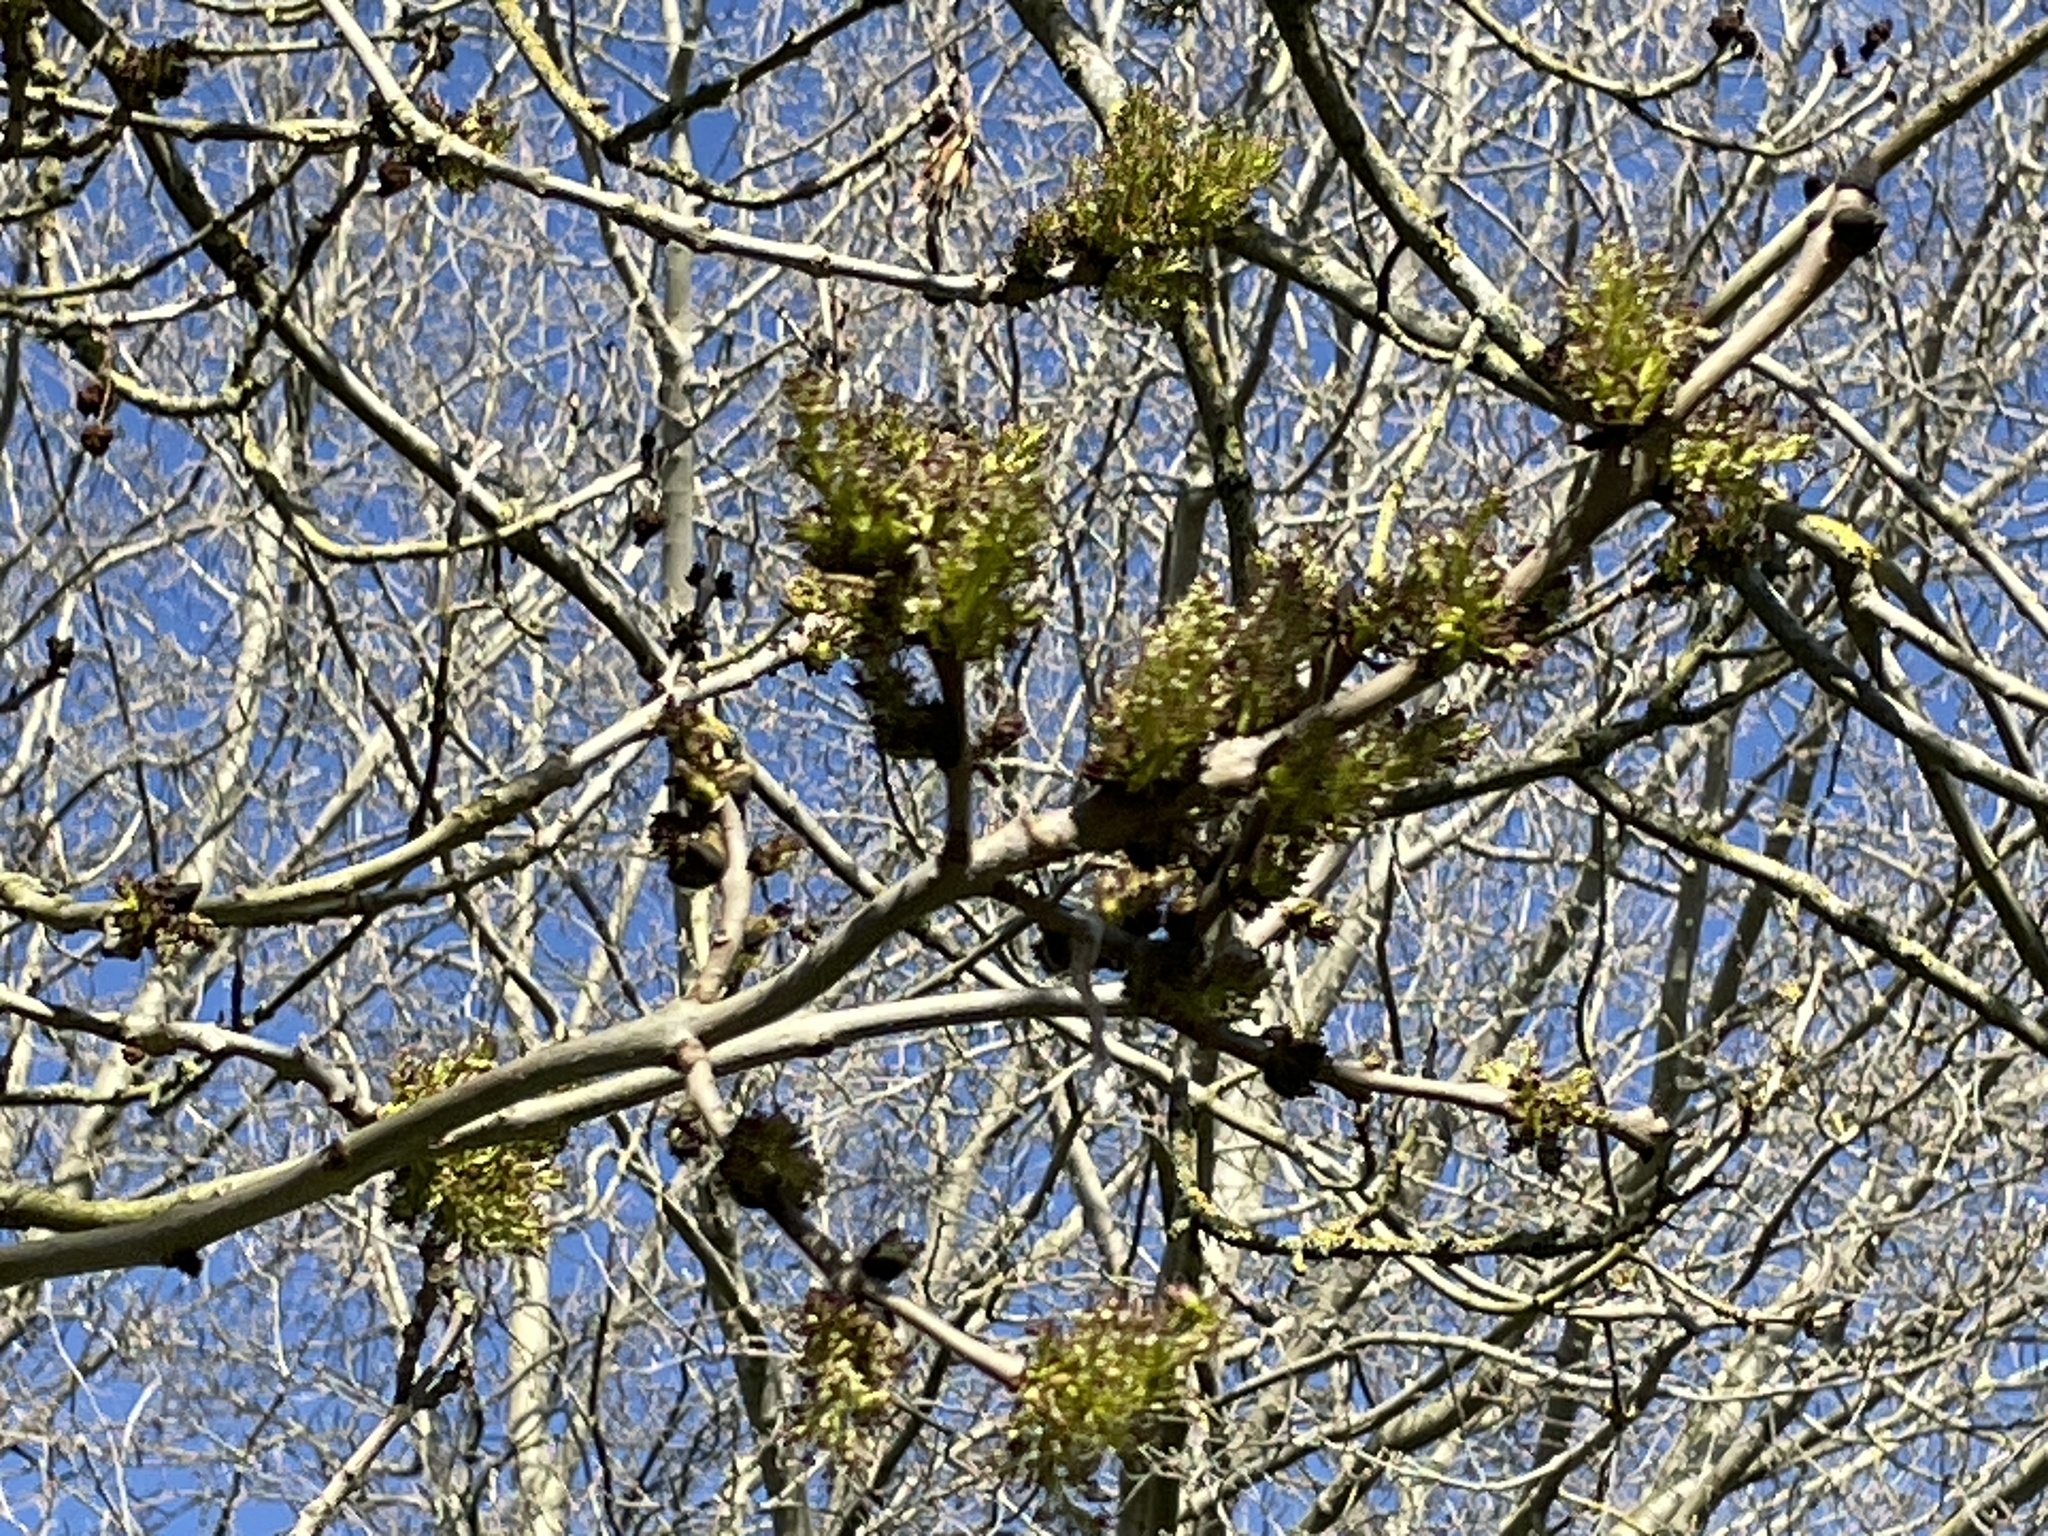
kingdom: Plantae
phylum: Tracheophyta
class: Magnoliopsida
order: Lamiales
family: Oleaceae
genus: Fraxinus
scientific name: Fraxinus excelsior
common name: European ash
